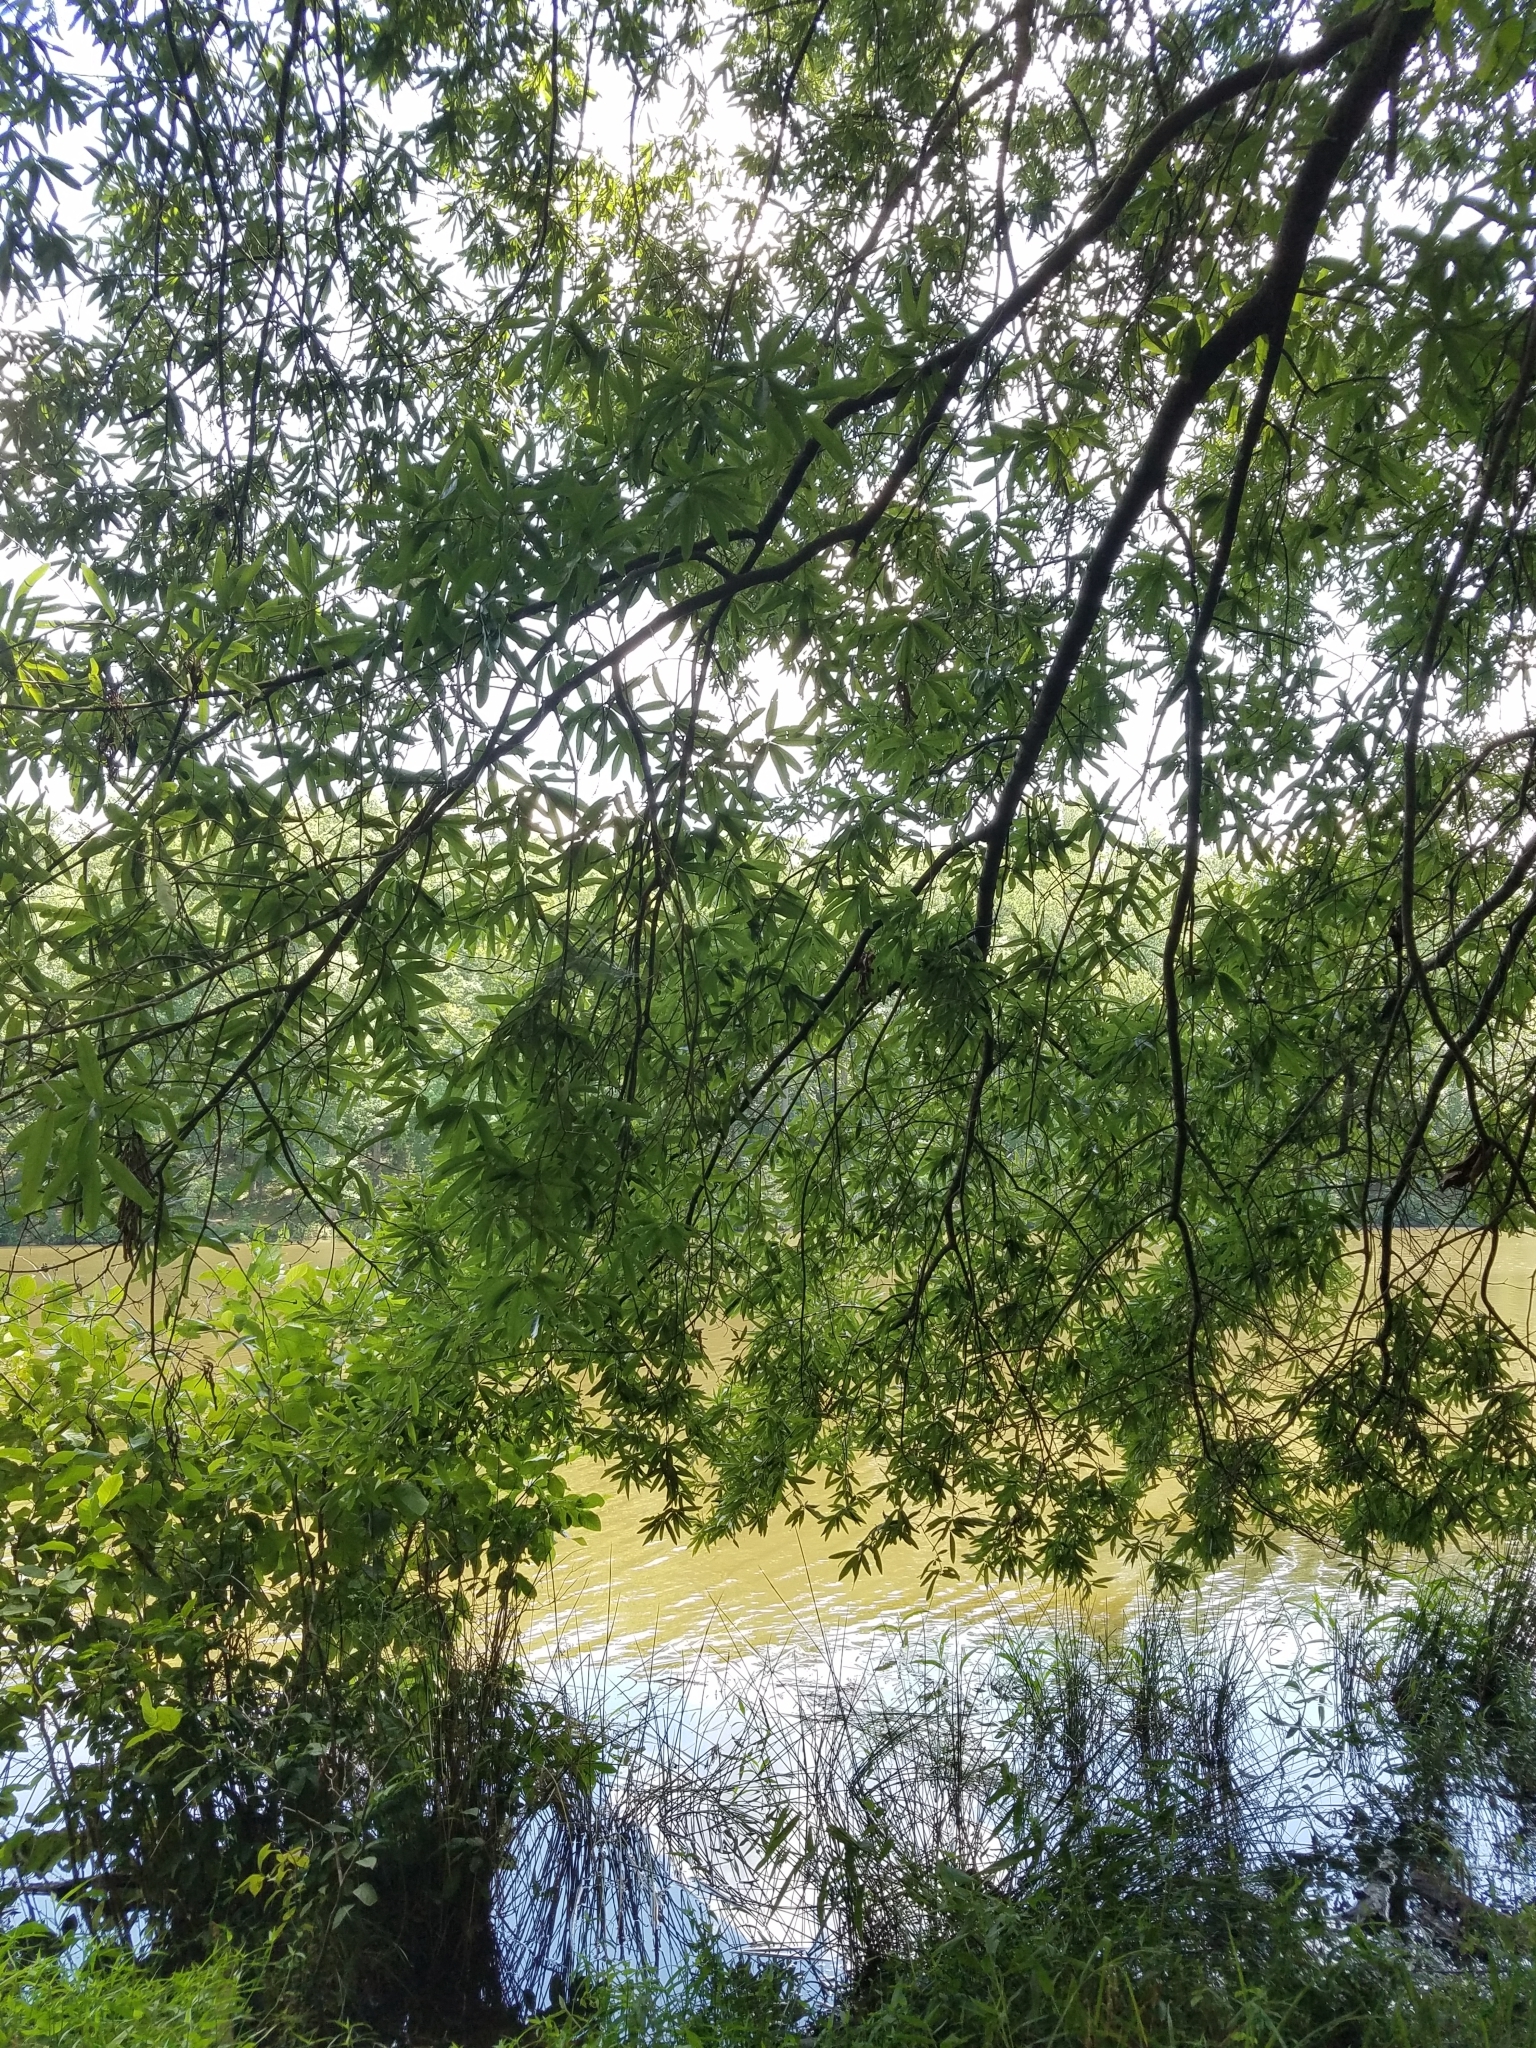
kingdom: Plantae
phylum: Tracheophyta
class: Magnoliopsida
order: Fagales
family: Fagaceae
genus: Quercus
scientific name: Quercus phellos
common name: Willow oak
